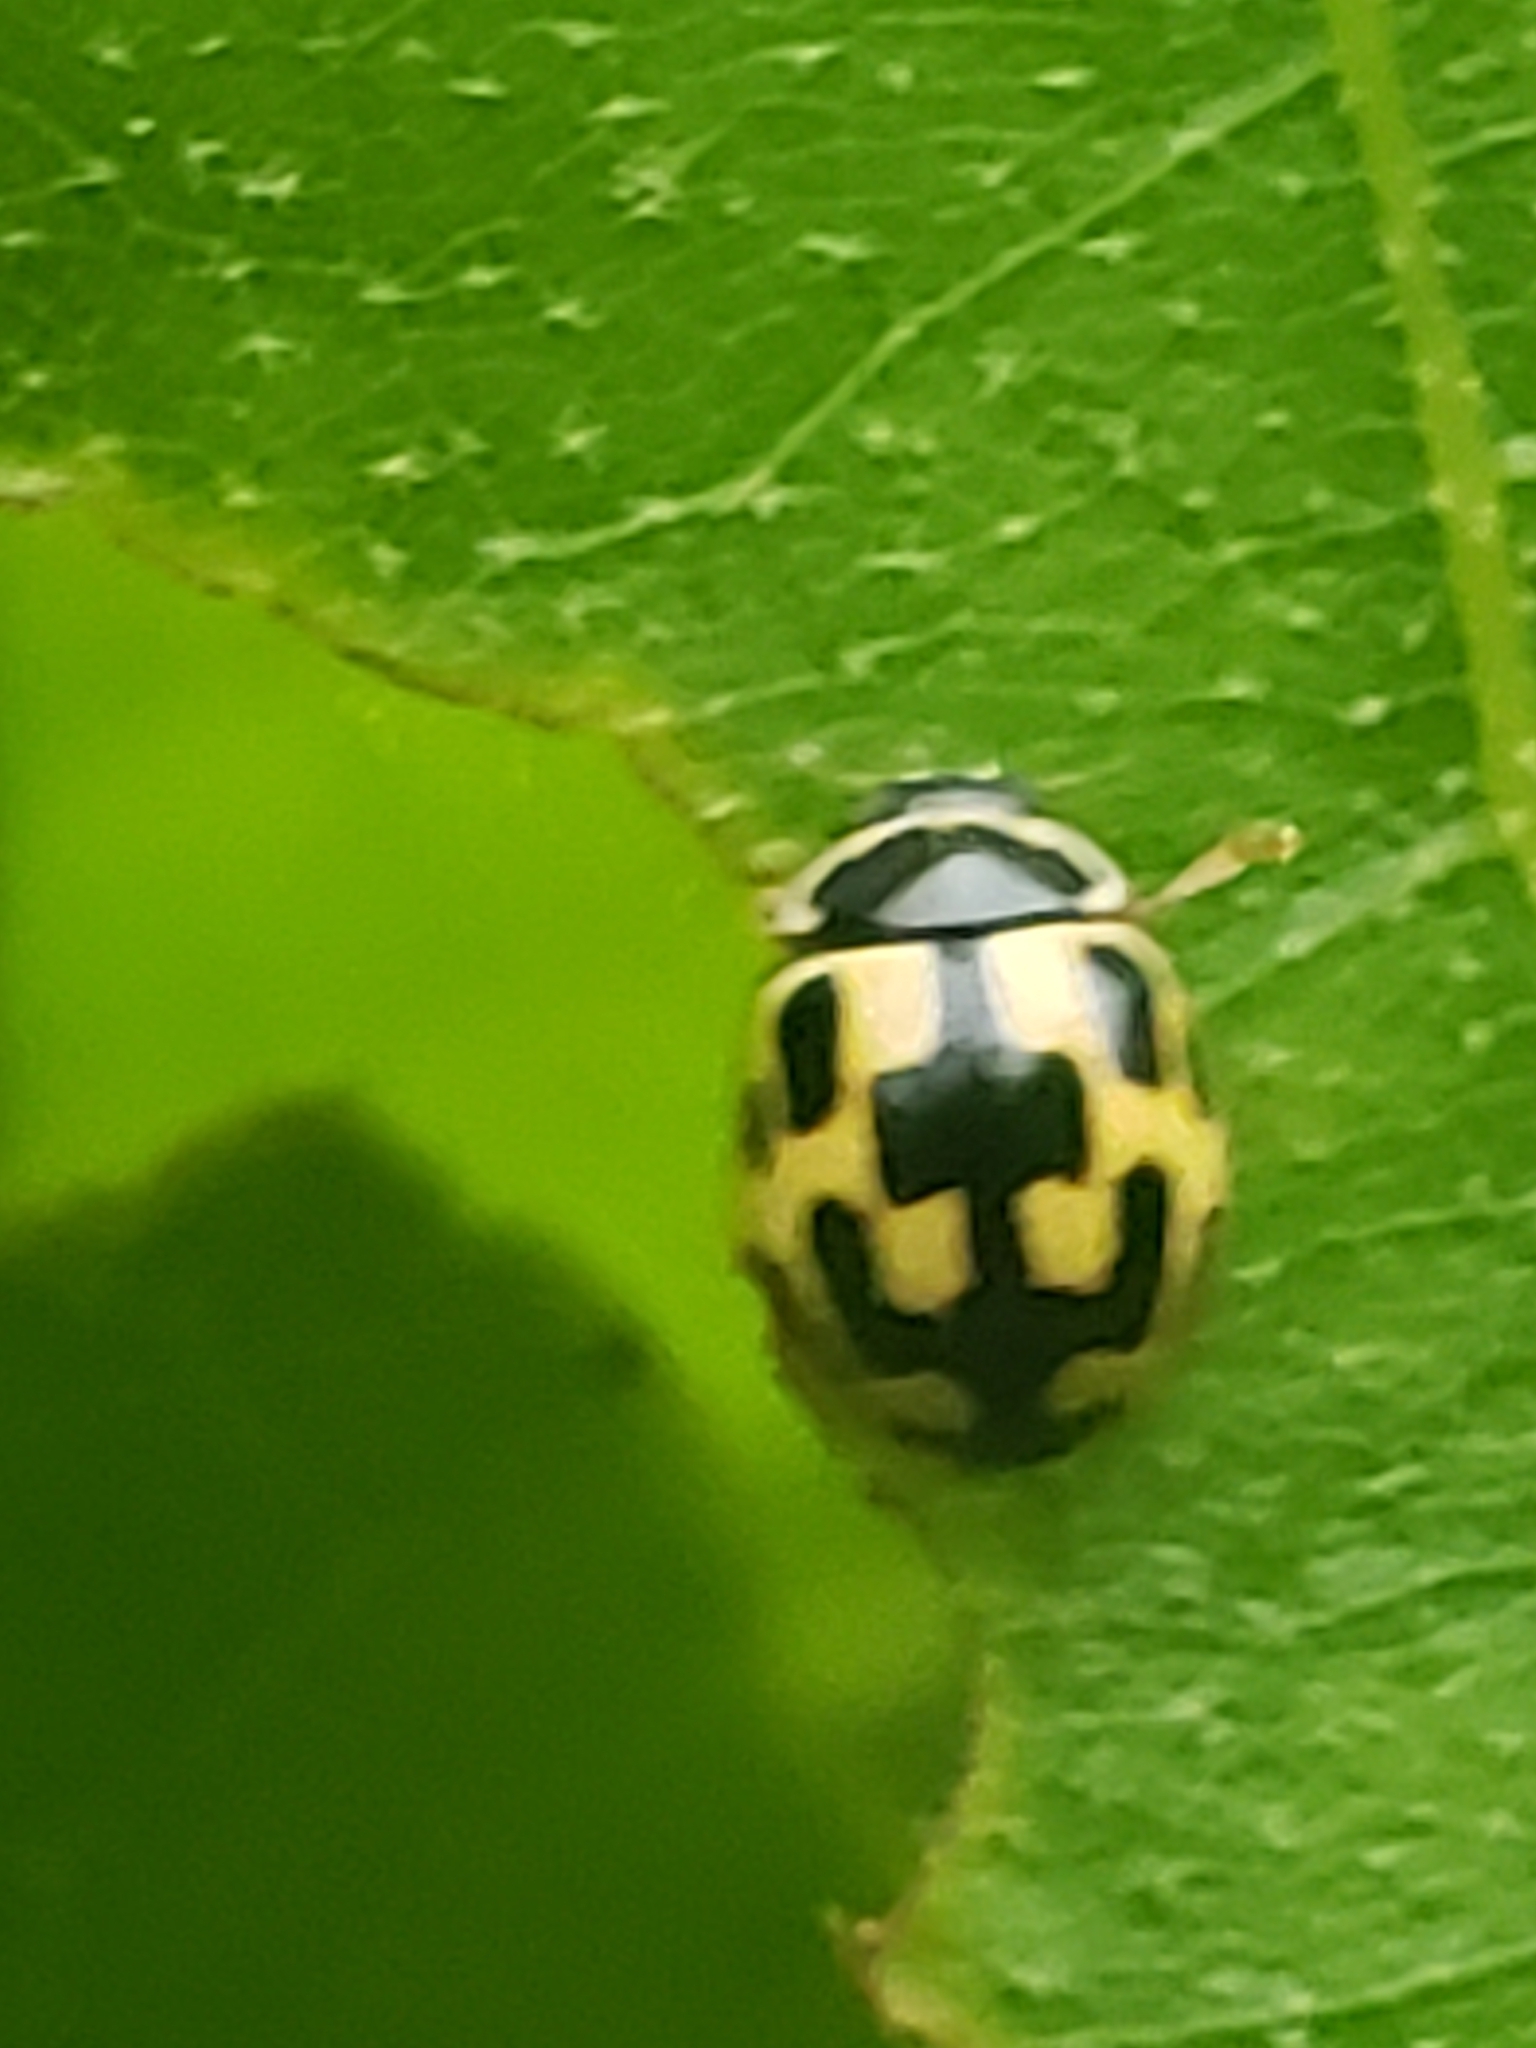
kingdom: Animalia
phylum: Arthropoda
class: Insecta
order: Coleoptera
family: Coccinellidae
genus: Propylaea
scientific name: Propylaea quatuordecimpunctata
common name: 14-spotted ladybird beetle
